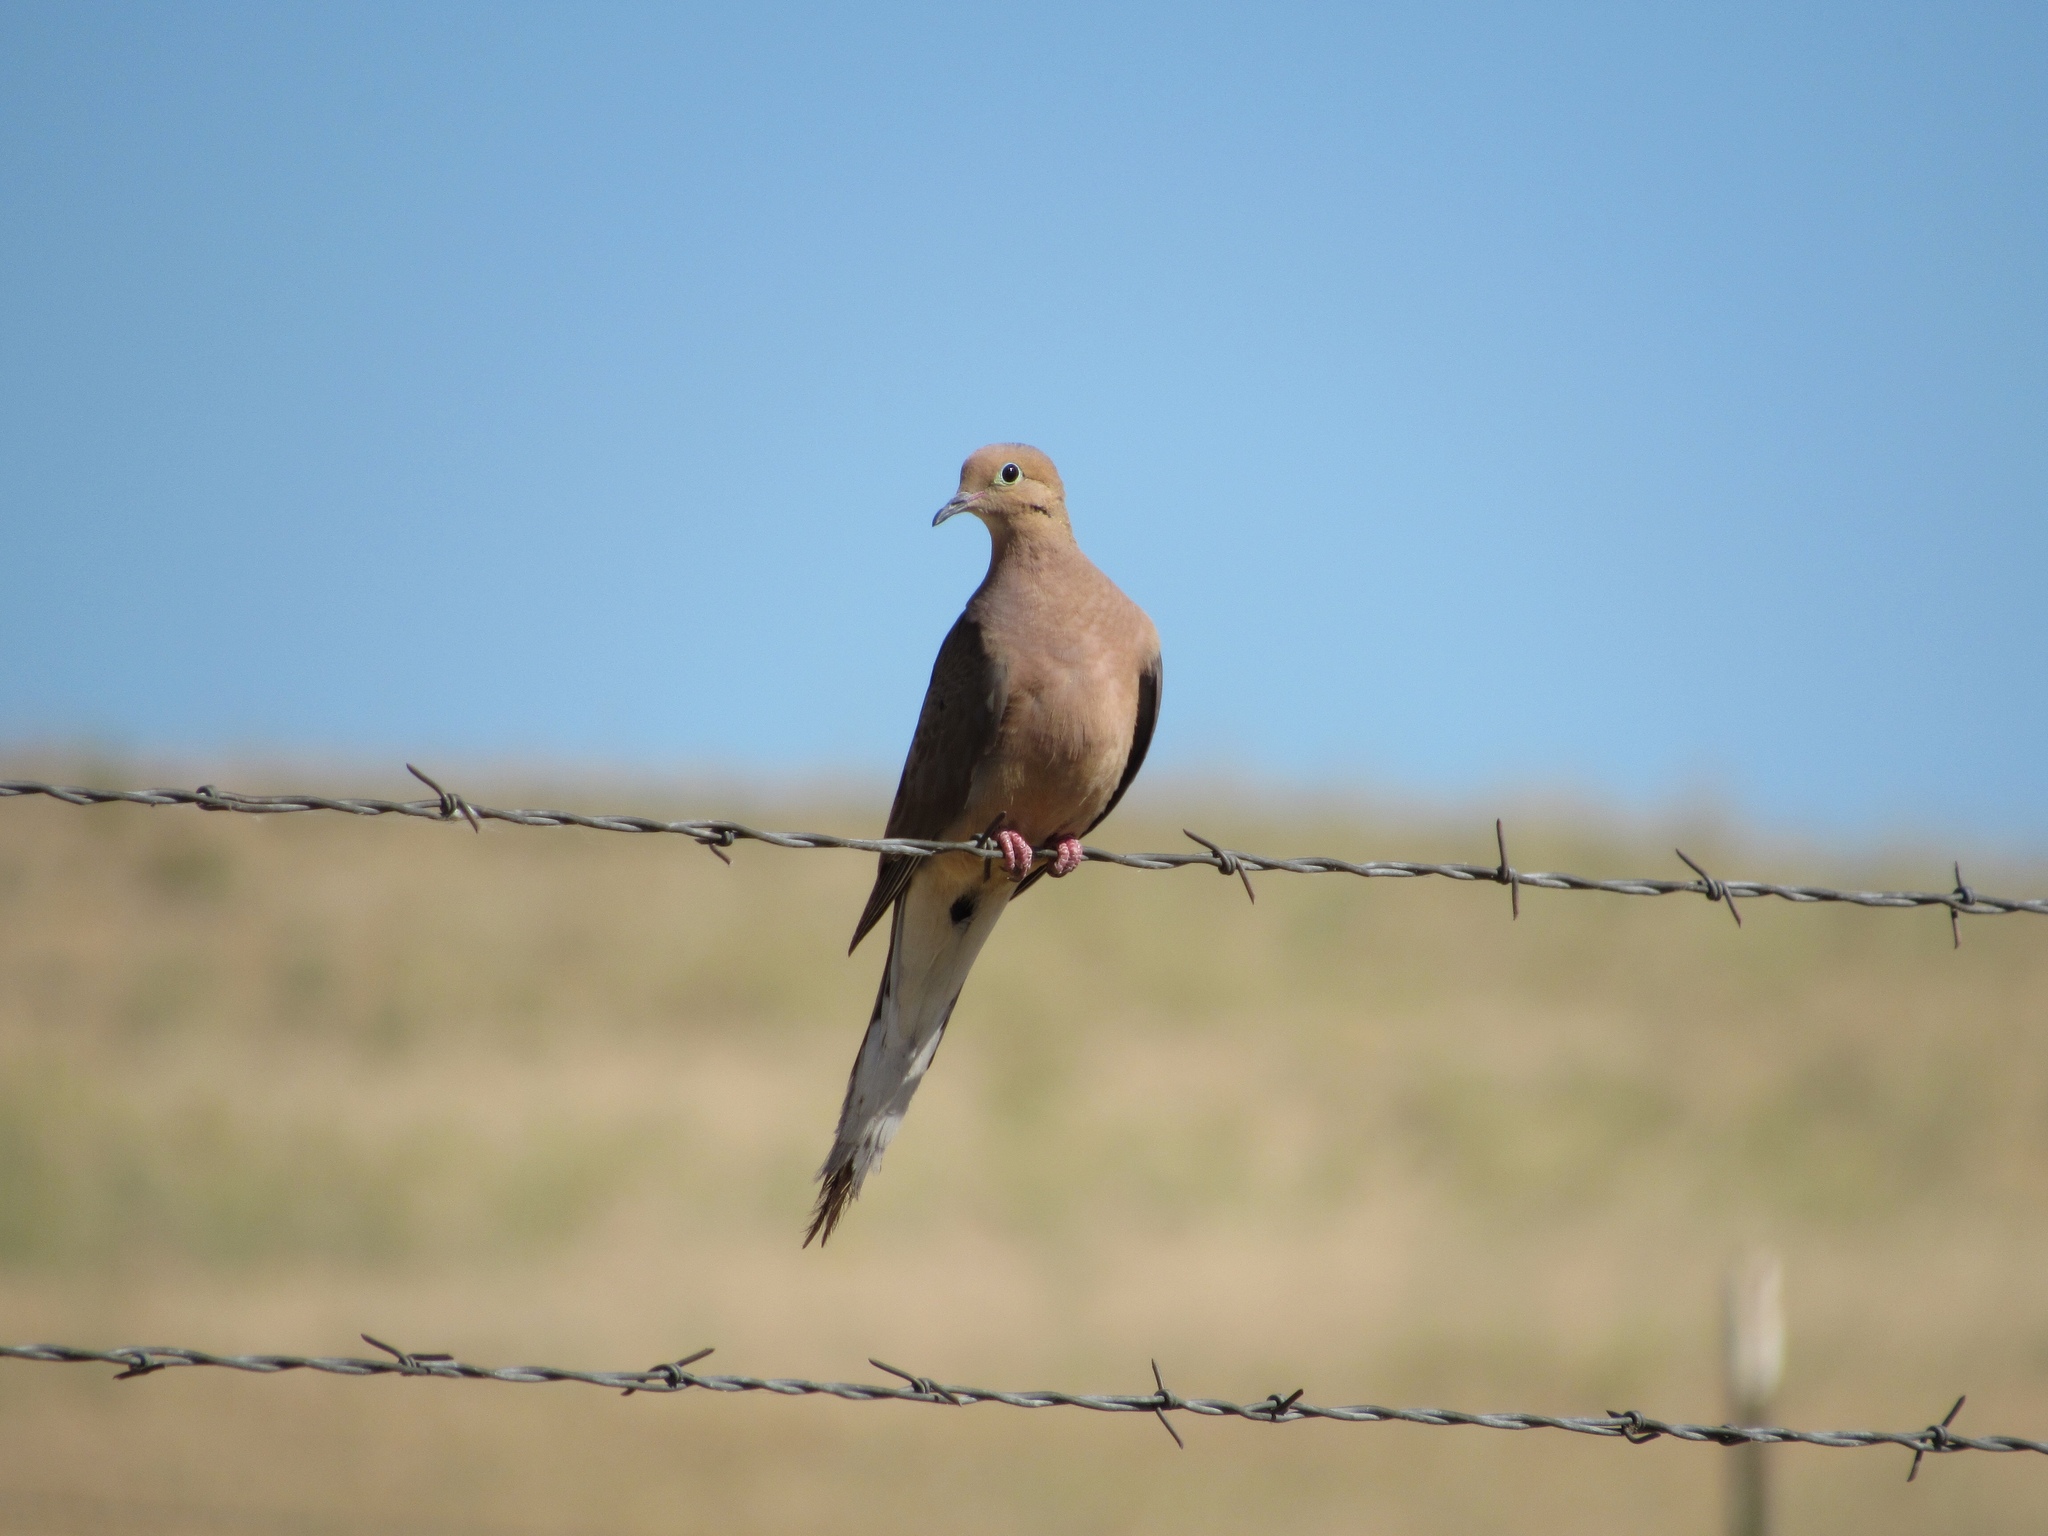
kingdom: Animalia
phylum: Chordata
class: Aves
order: Columbiformes
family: Columbidae
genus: Zenaida
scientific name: Zenaida macroura
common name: Mourning dove
